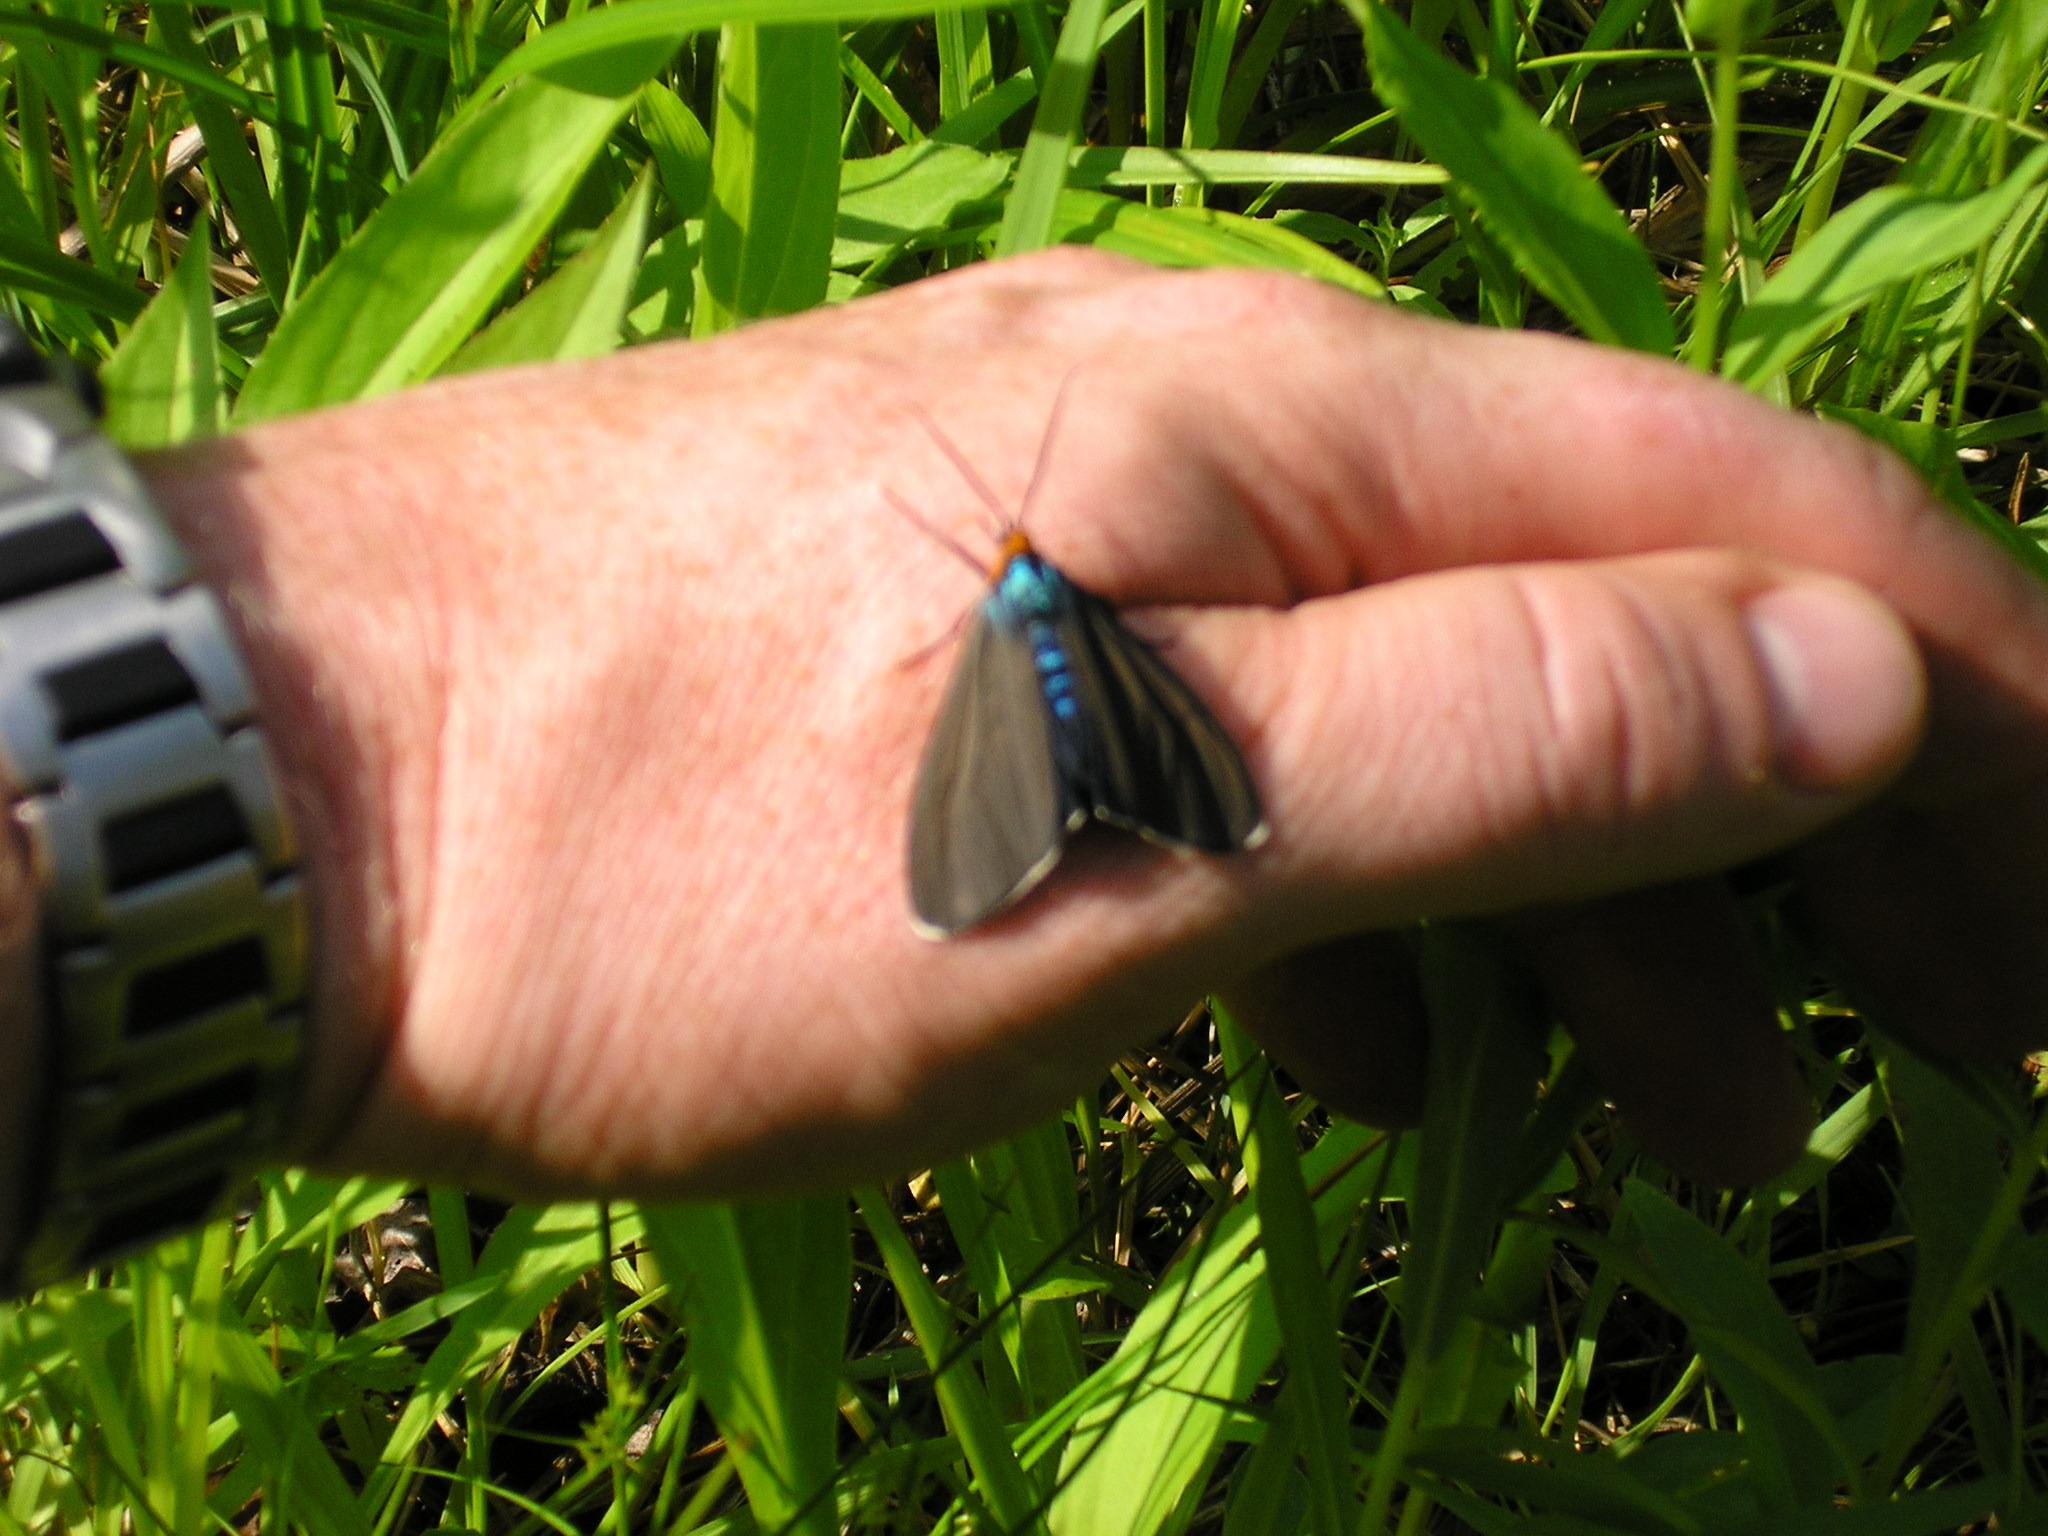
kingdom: Animalia
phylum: Arthropoda
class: Insecta
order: Lepidoptera
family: Erebidae
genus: Ctenucha
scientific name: Ctenucha virginica
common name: Virginia ctenucha moth
